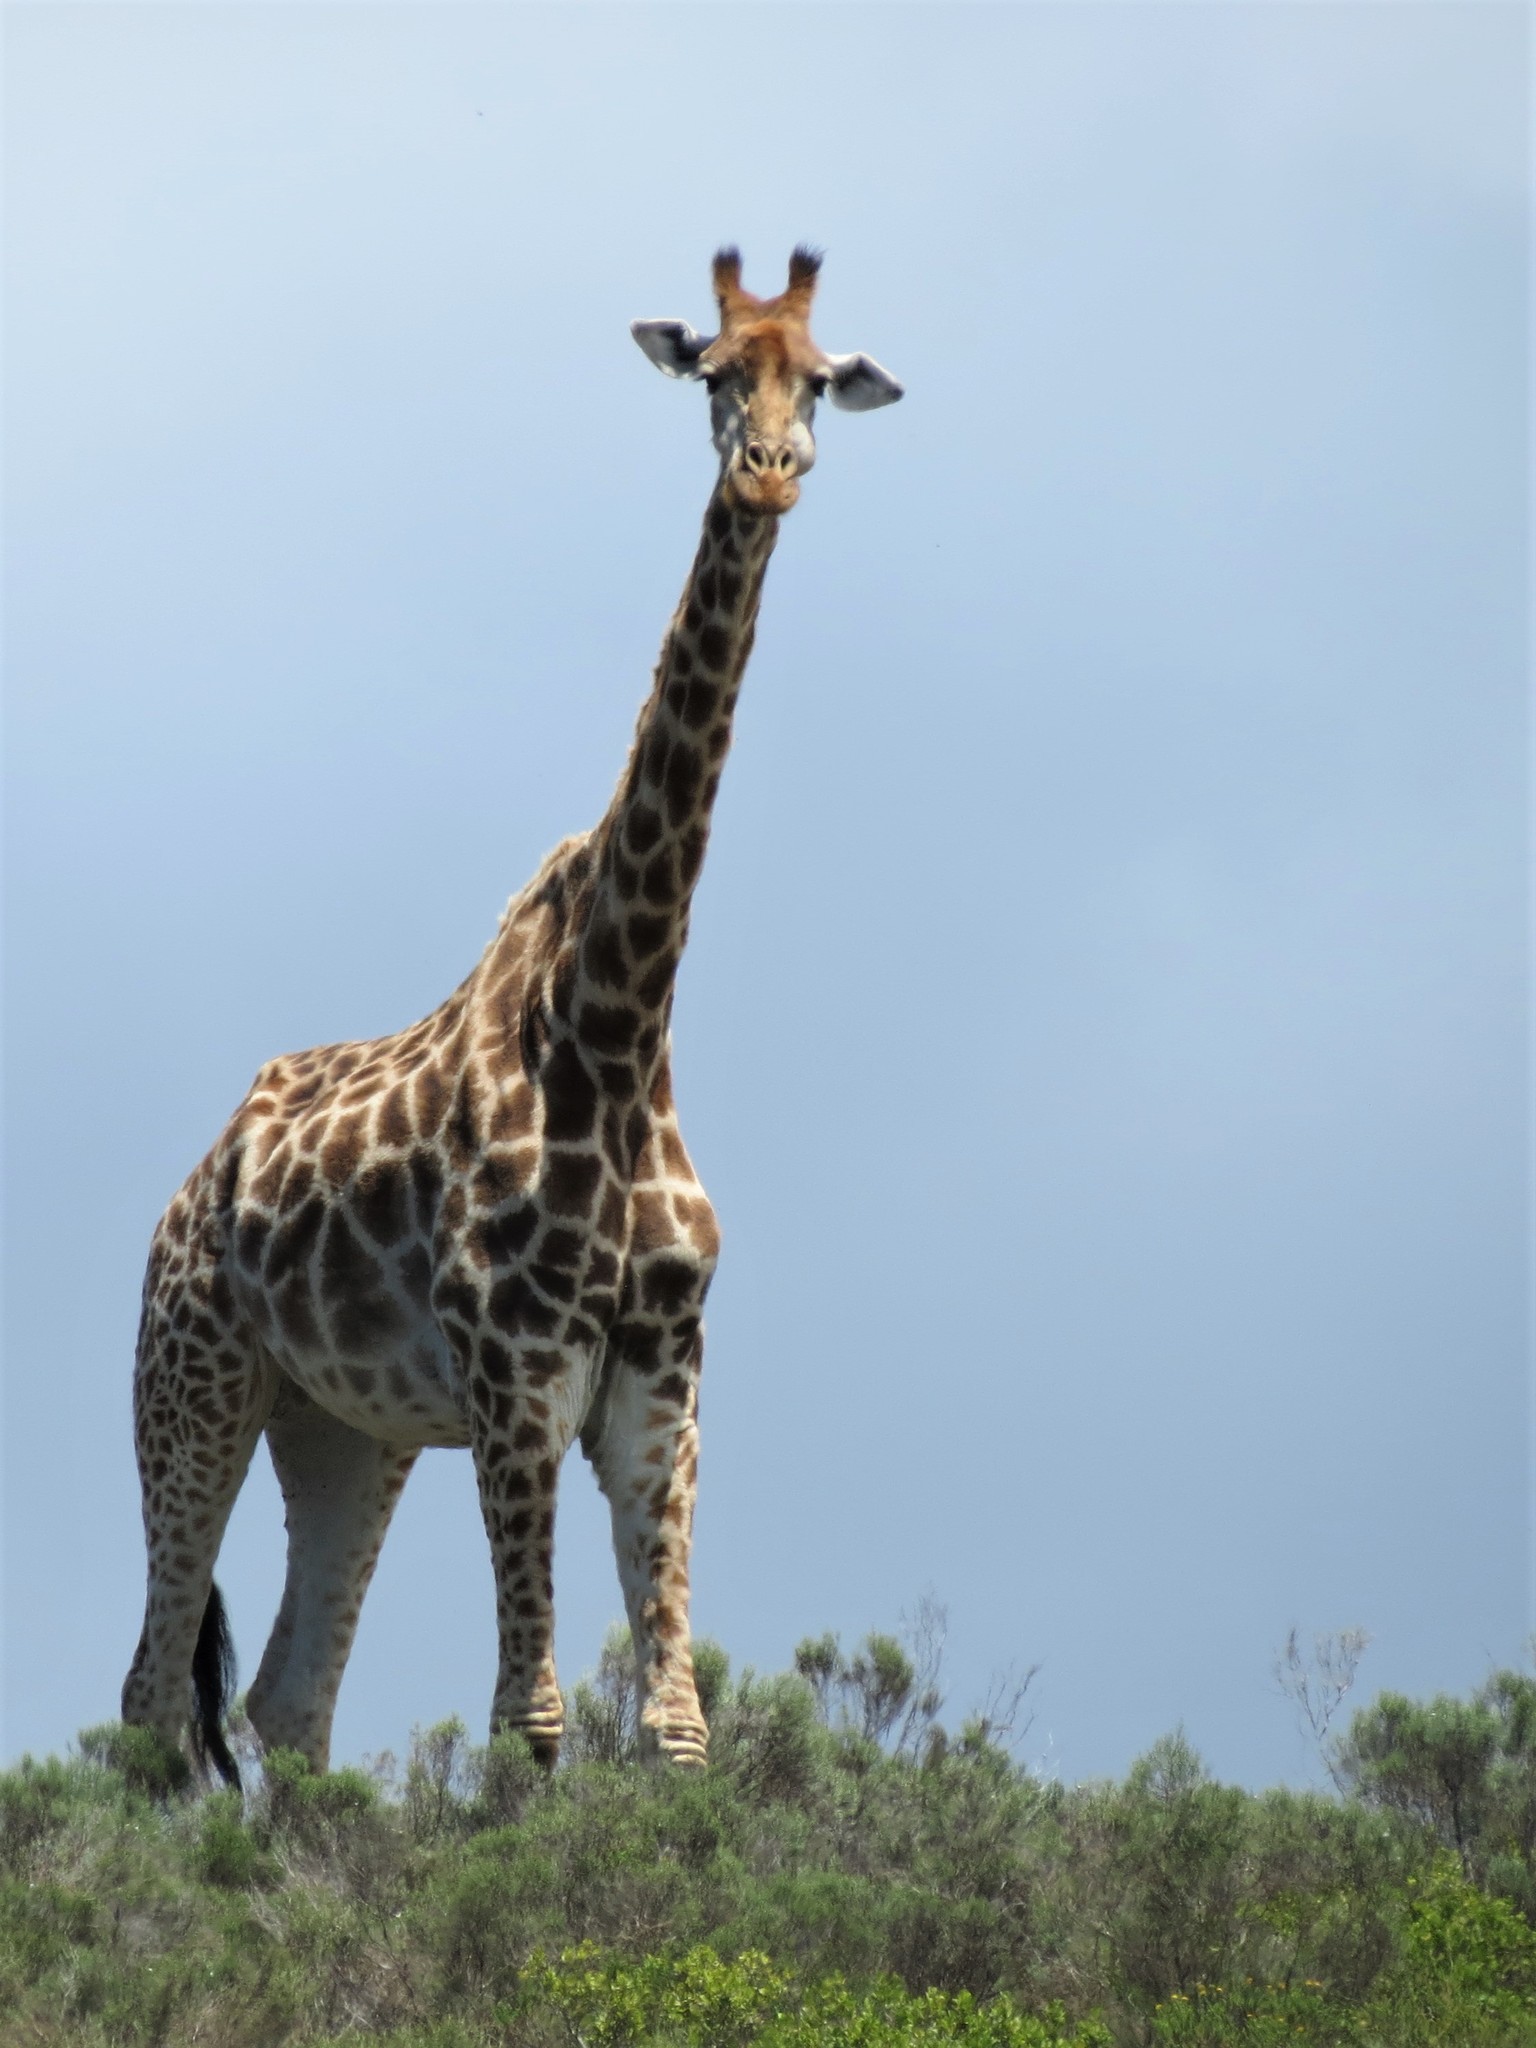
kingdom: Animalia
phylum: Chordata
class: Mammalia
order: Artiodactyla
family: Giraffidae
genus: Giraffa
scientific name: Giraffa giraffa
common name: Southern giraffe
